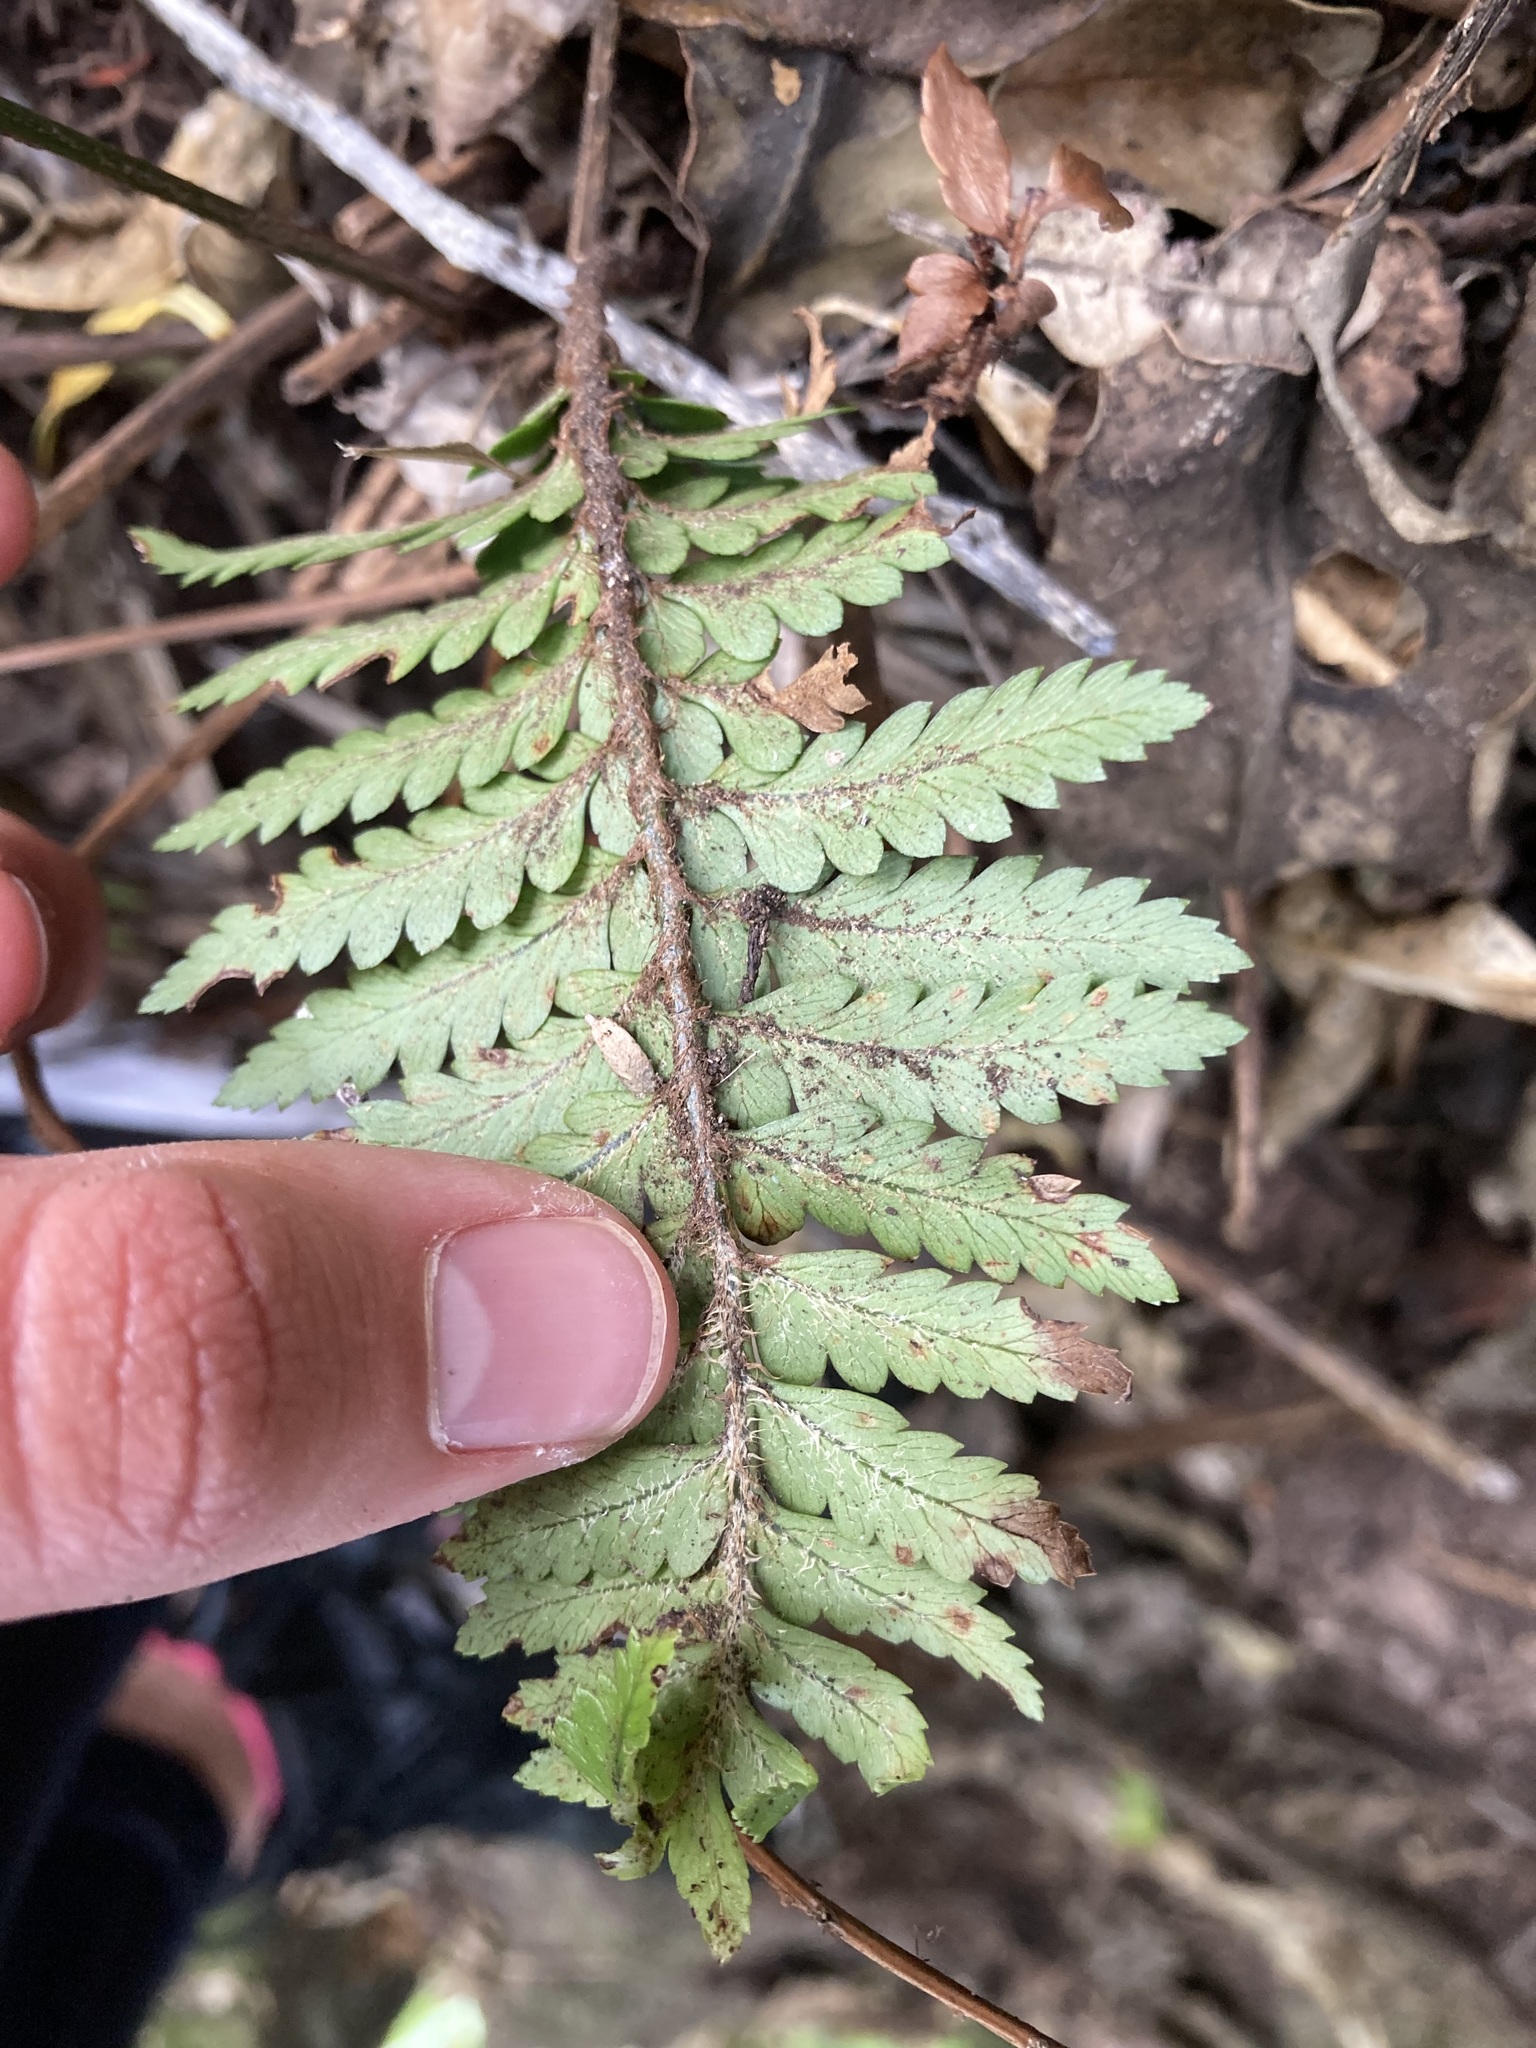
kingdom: Plantae
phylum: Tracheophyta
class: Polypodiopsida
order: Polypodiales
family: Dryopteridaceae
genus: Polystichum
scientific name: Polystichum wawranum
